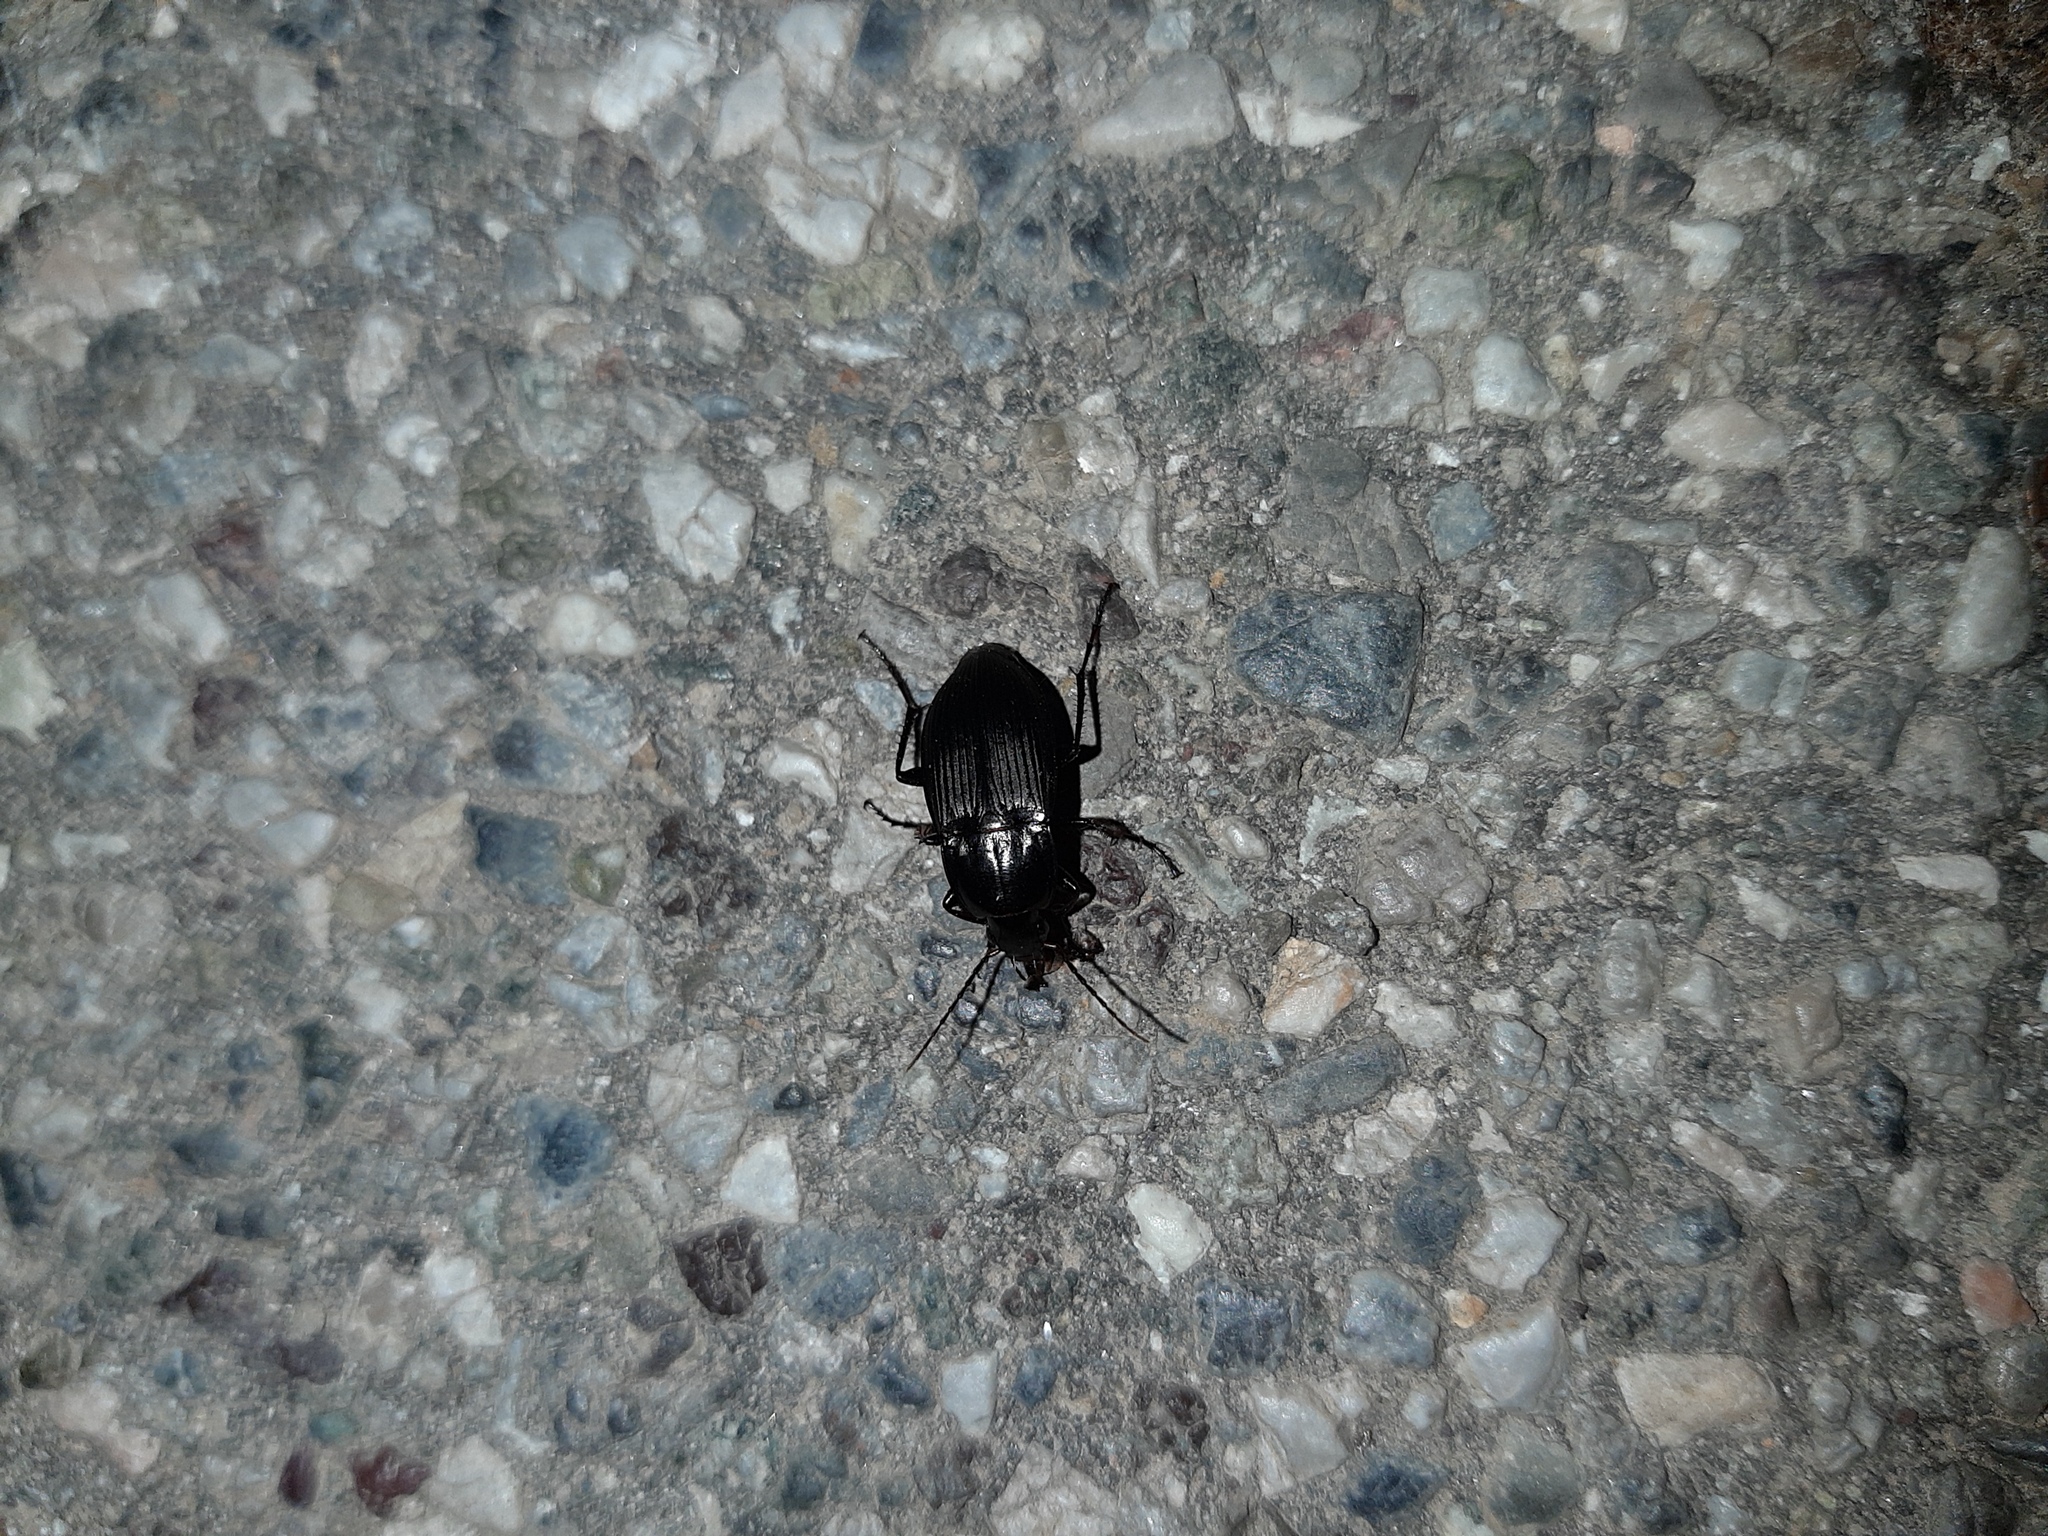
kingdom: Animalia
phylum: Arthropoda
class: Insecta
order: Coleoptera
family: Carabidae
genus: Calathus
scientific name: Calathus fuscipes
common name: Dark-footed harp ground beetle
